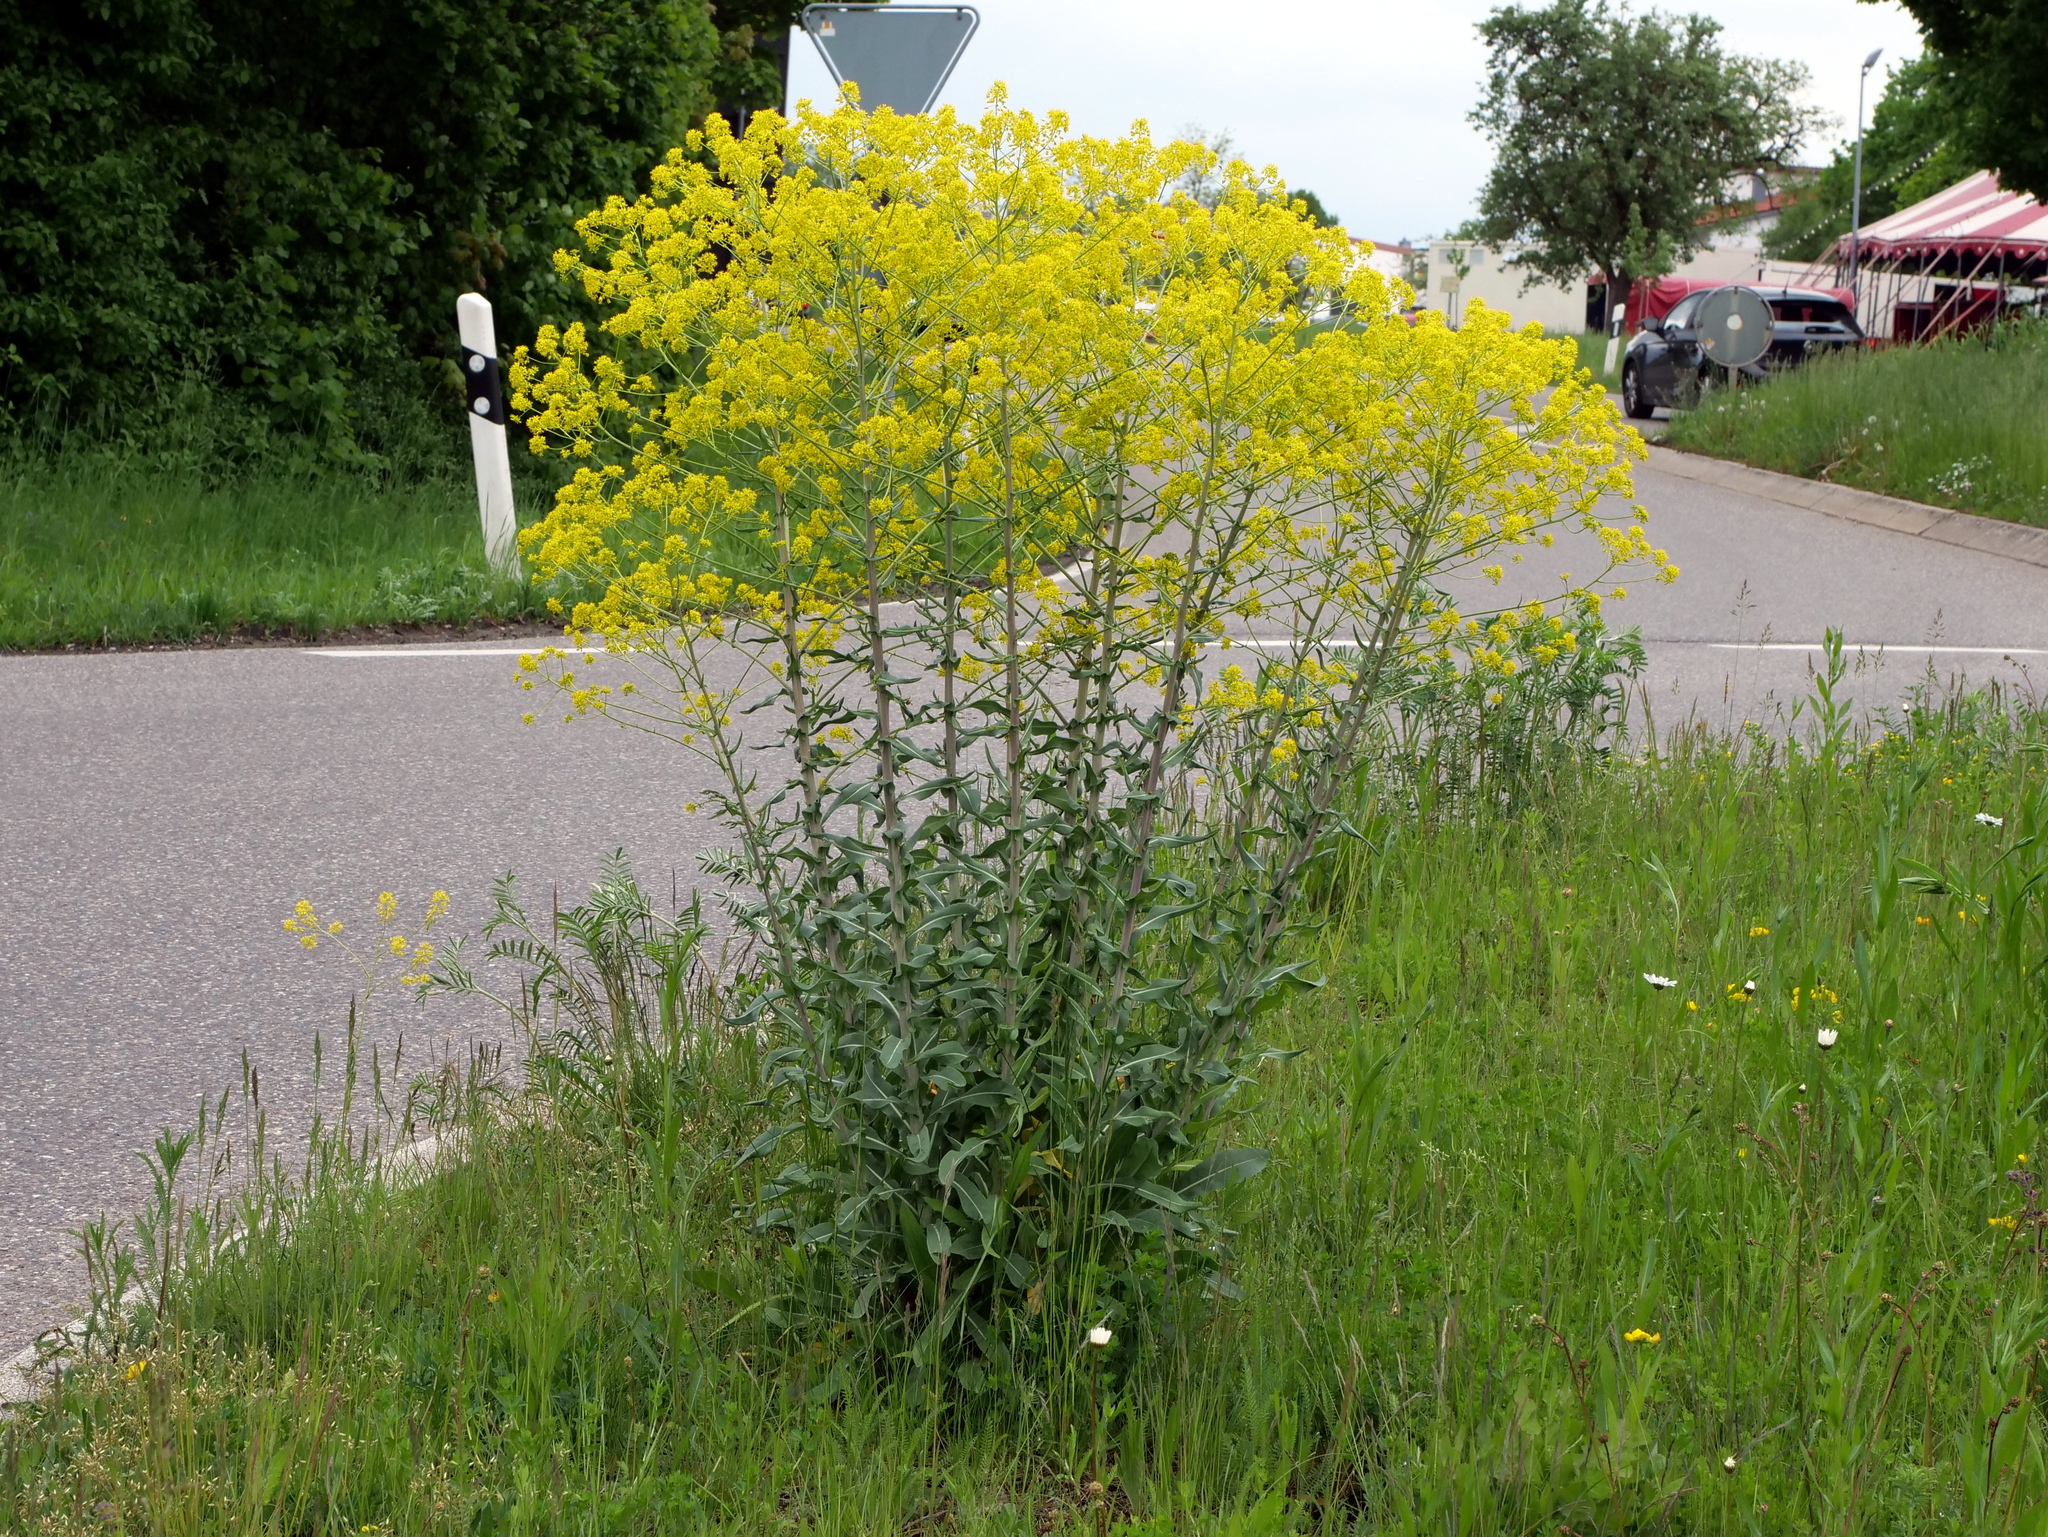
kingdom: Plantae
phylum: Tracheophyta
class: Magnoliopsida
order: Brassicales
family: Brassicaceae
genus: Isatis
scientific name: Isatis tinctoria
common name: Woad
